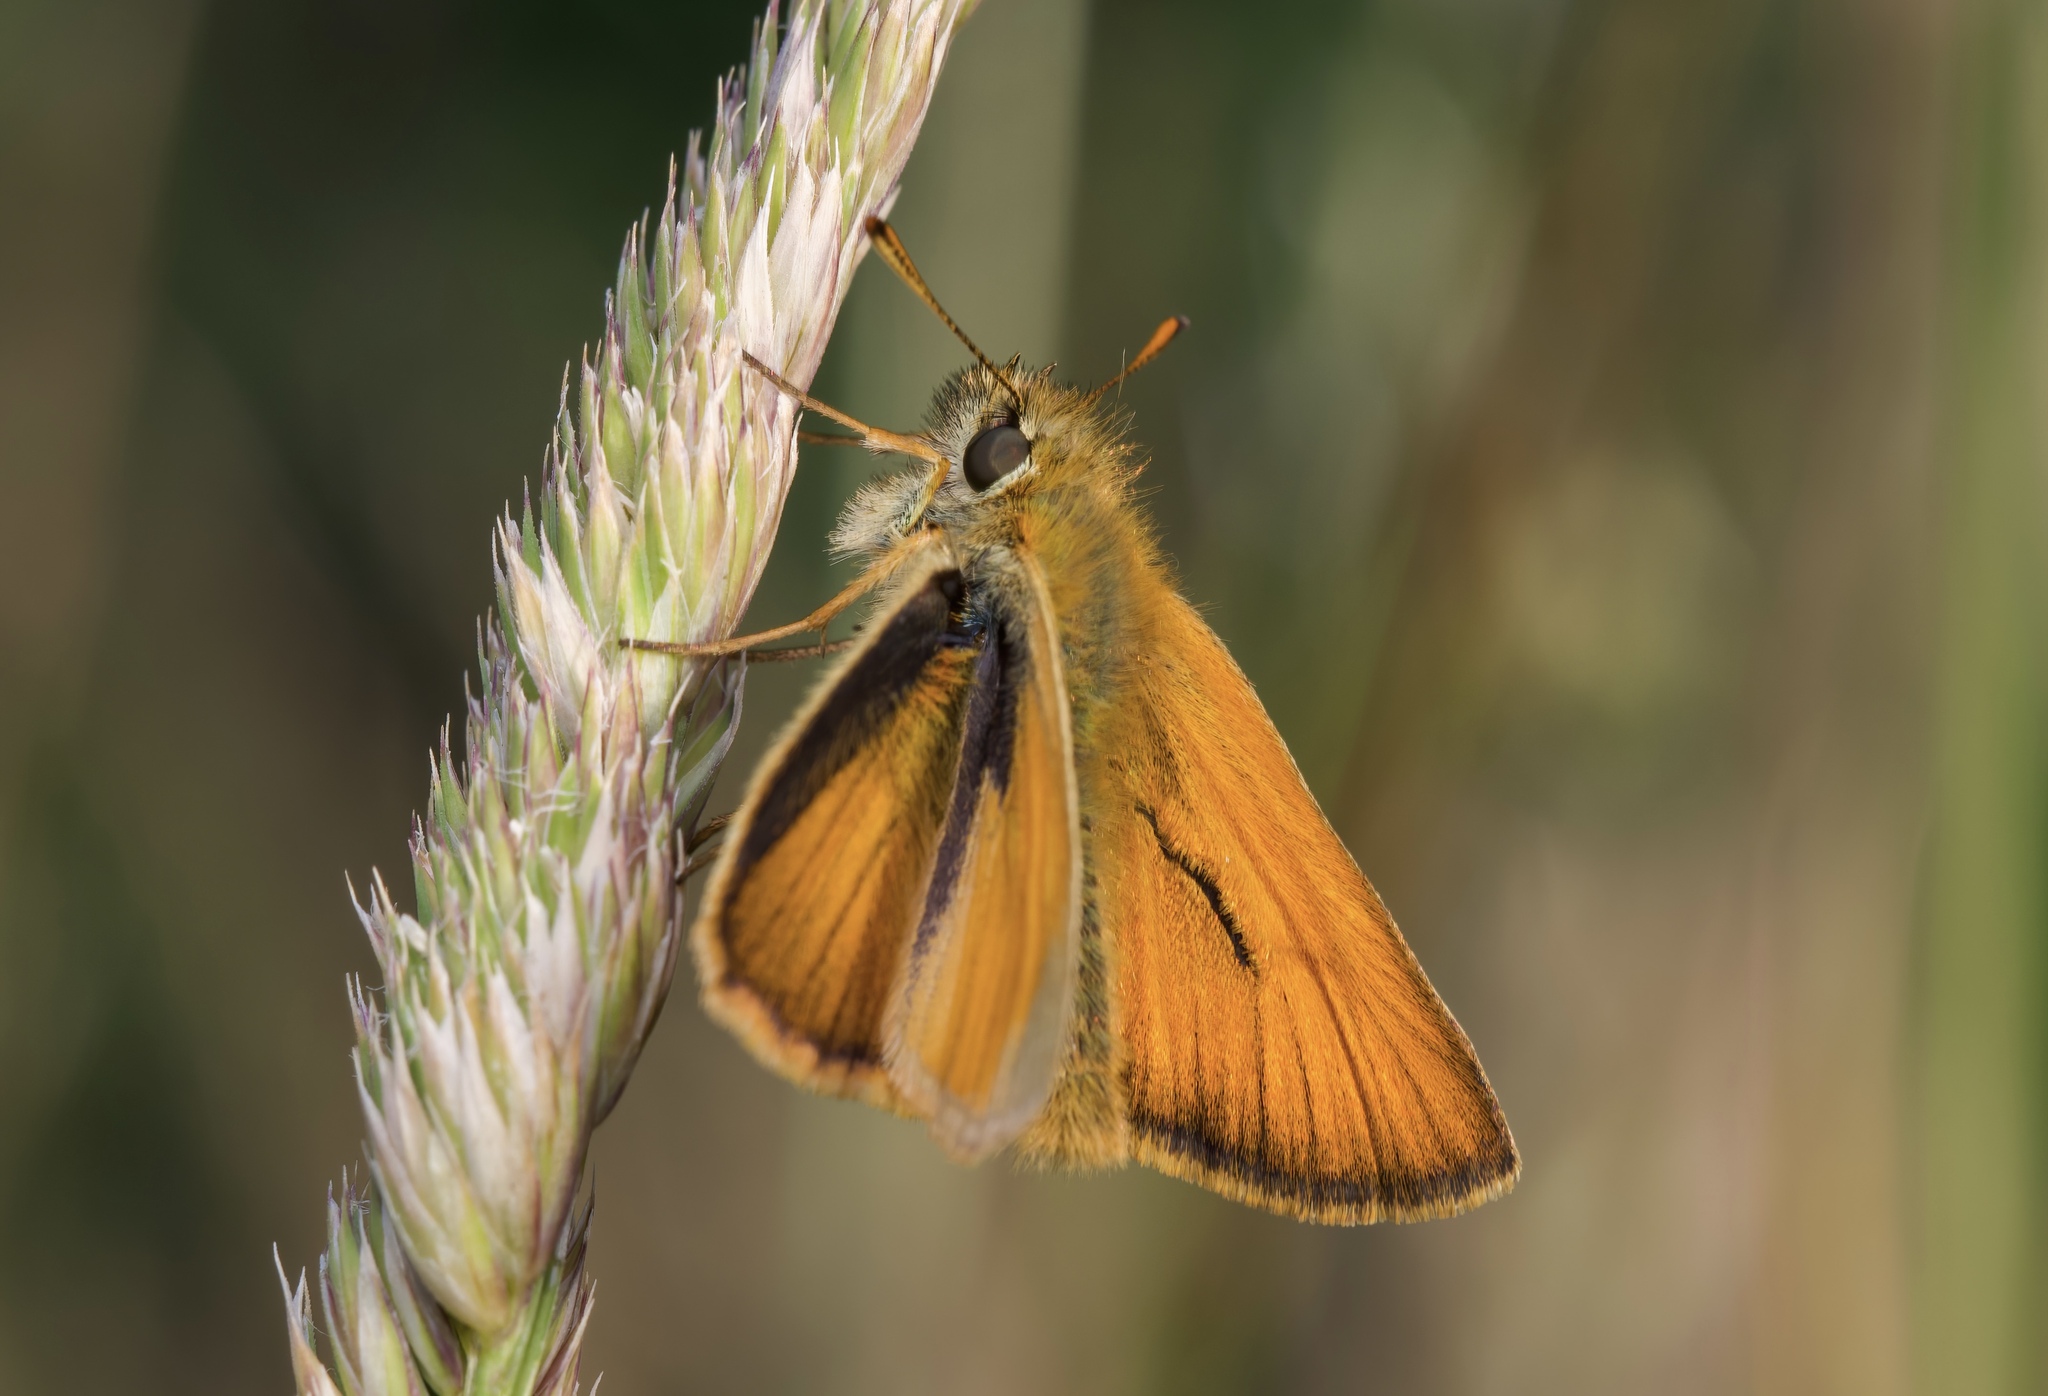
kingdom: Animalia
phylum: Arthropoda
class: Insecta
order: Lepidoptera
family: Hesperiidae
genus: Thymelicus
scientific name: Thymelicus sylvestris
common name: Small skipper
